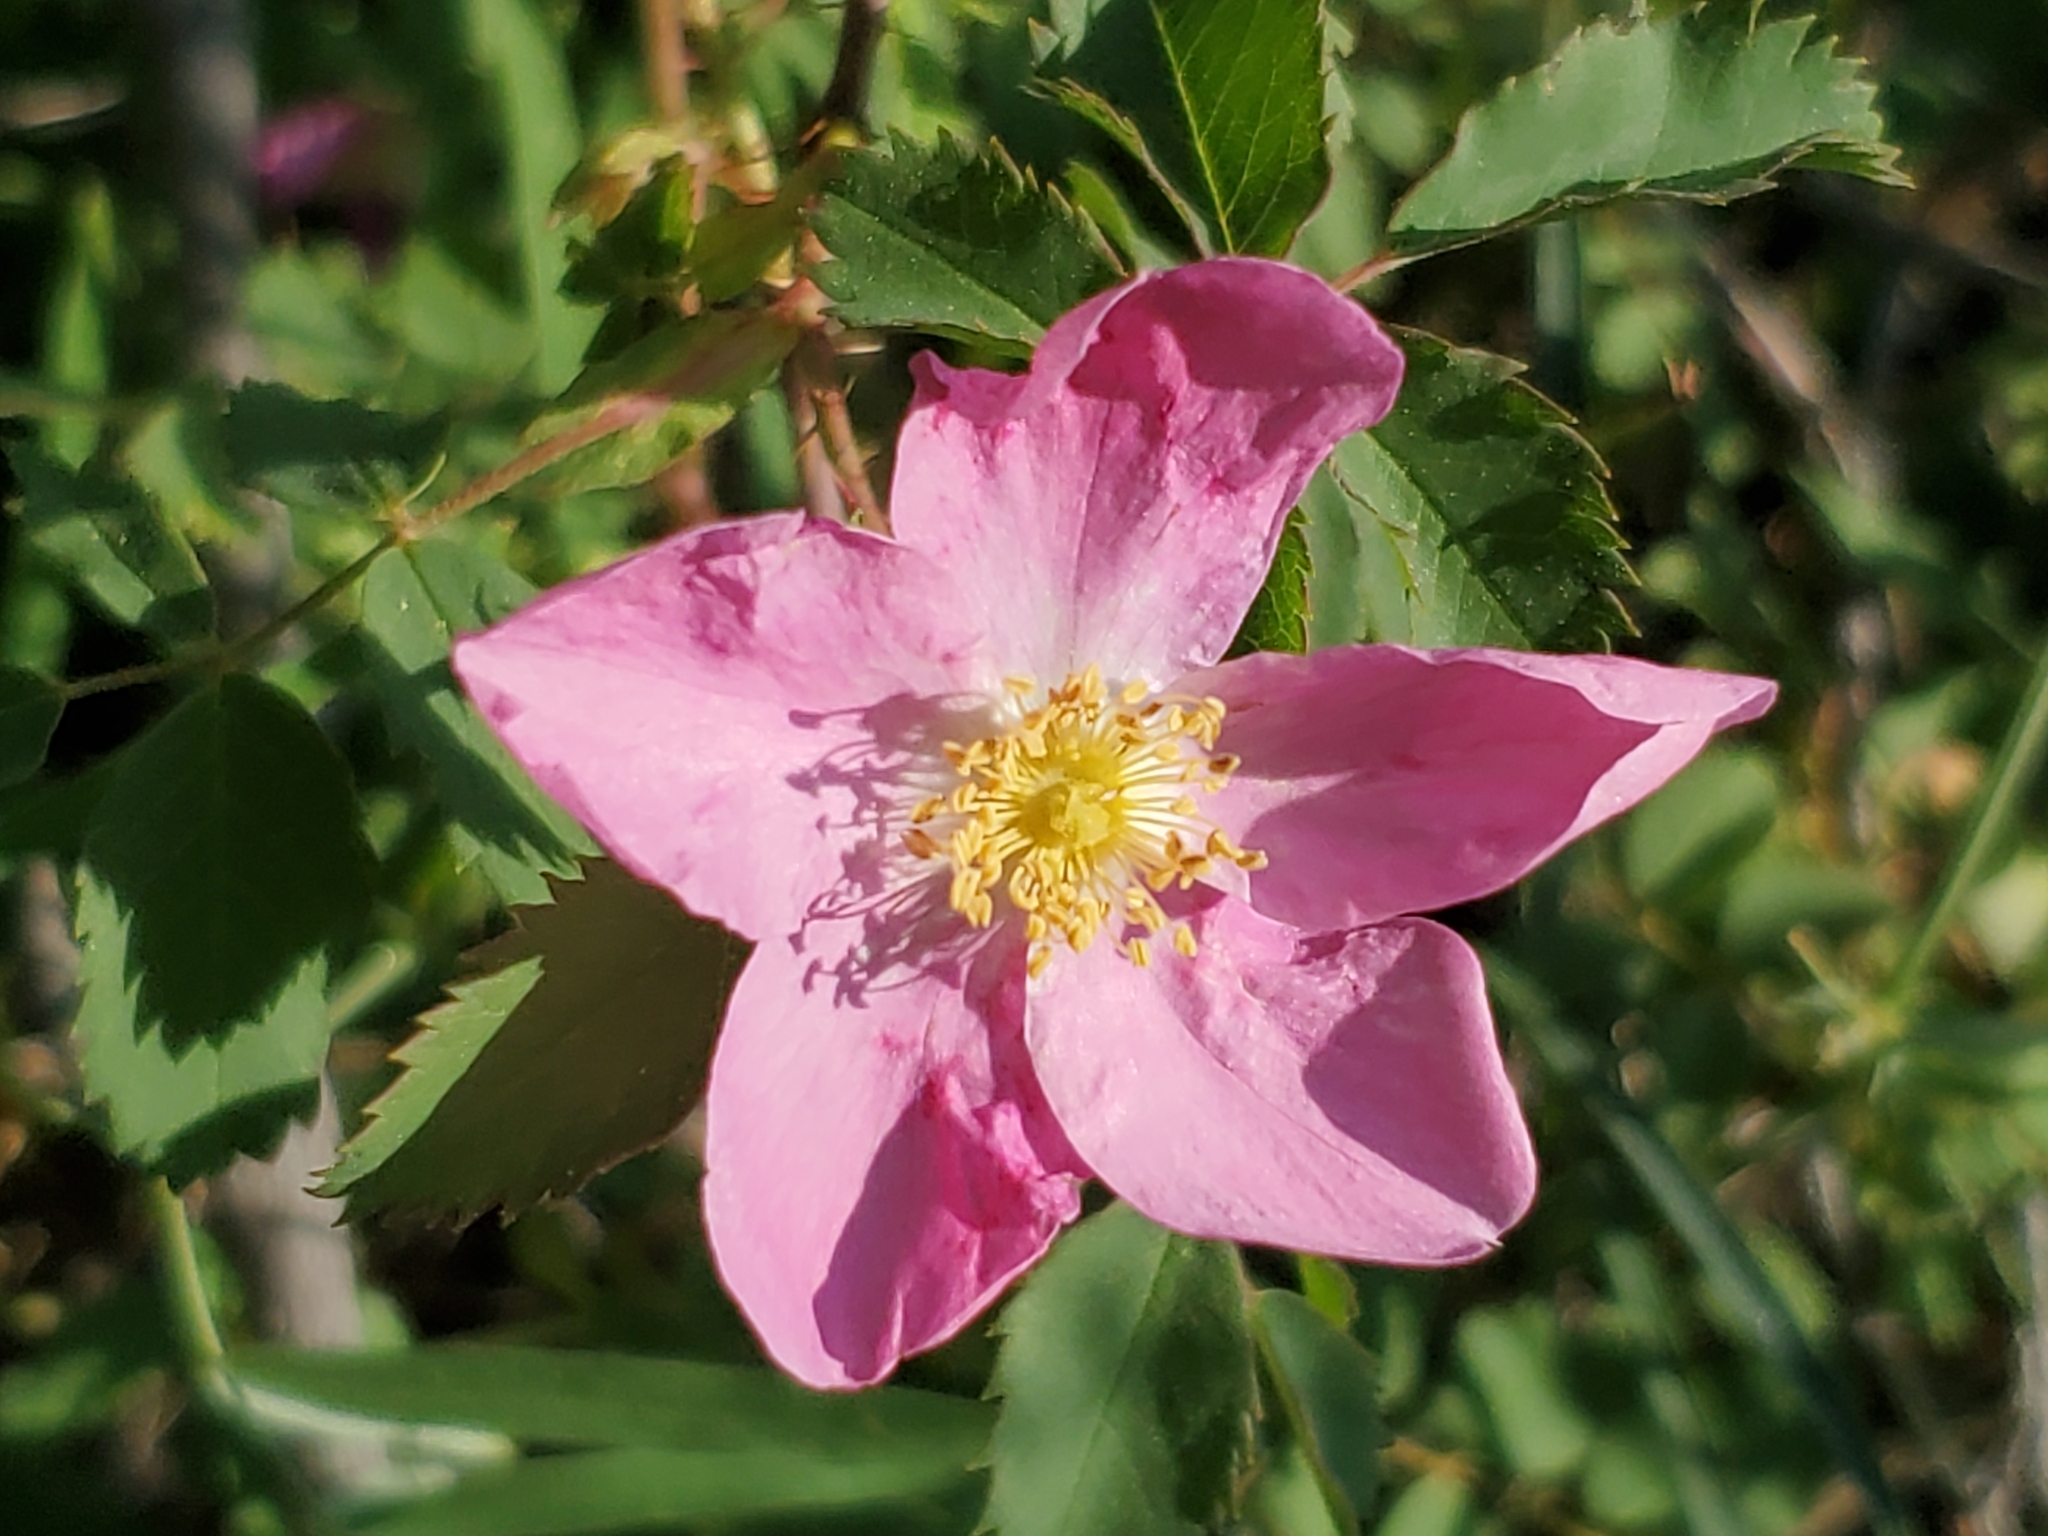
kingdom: Plantae
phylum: Tracheophyta
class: Magnoliopsida
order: Rosales
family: Rosaceae
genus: Rosa
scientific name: Rosa woodsii
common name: Woods's rose
